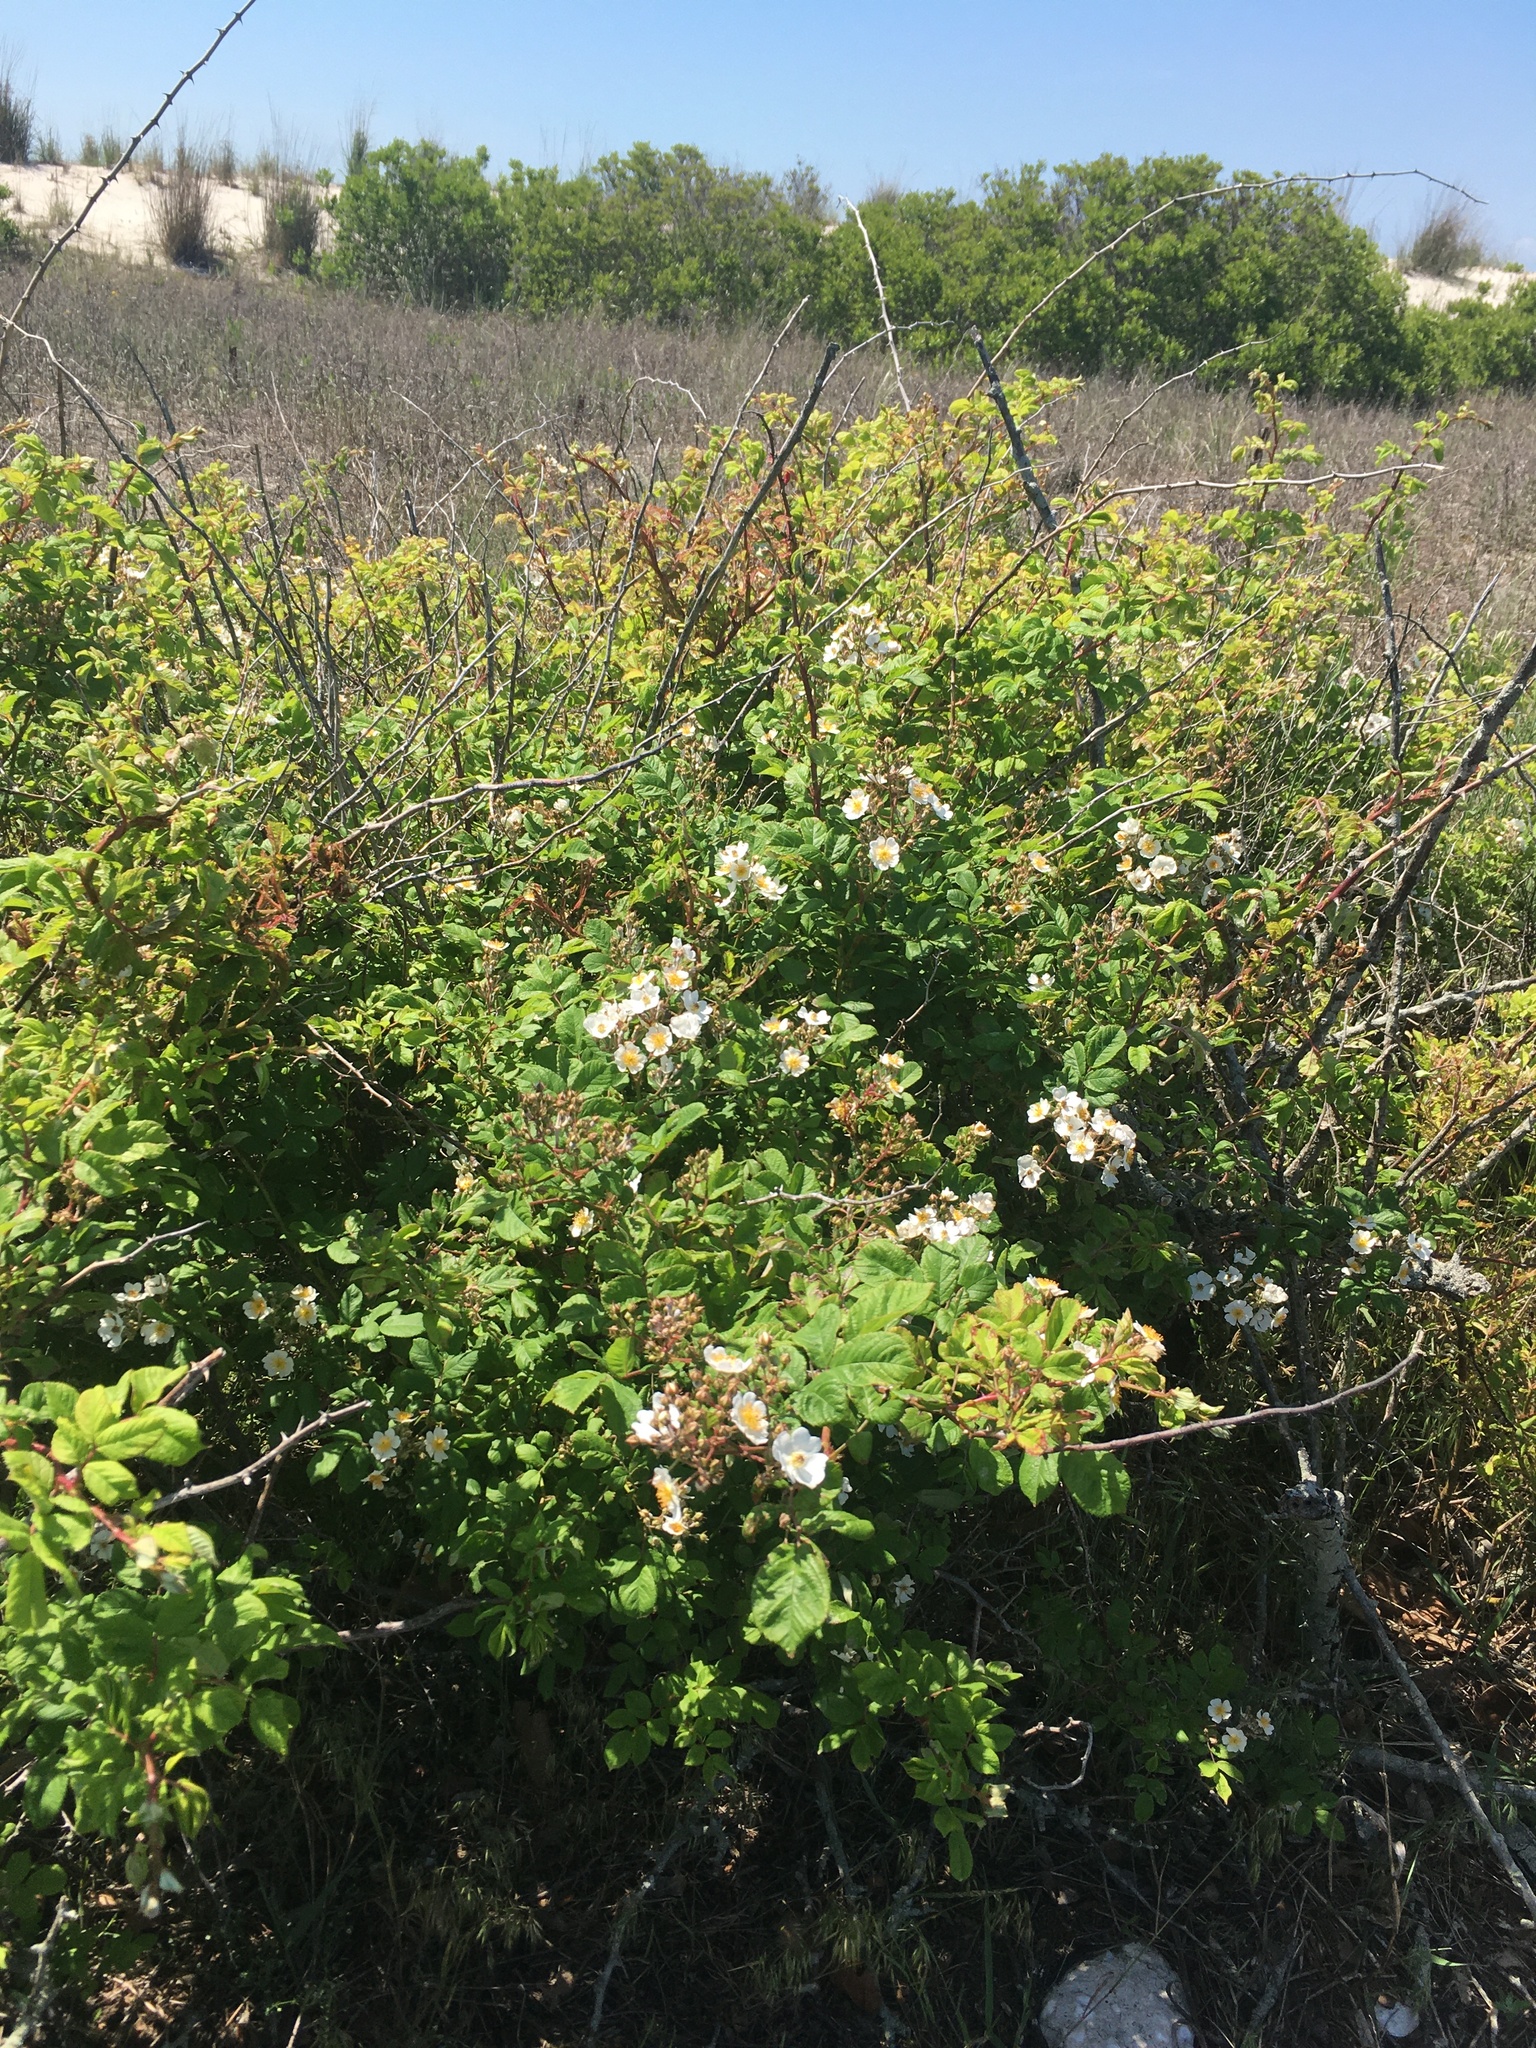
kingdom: Plantae
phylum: Tracheophyta
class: Magnoliopsida
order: Rosales
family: Rosaceae
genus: Rosa
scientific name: Rosa multiflora
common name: Multiflora rose
